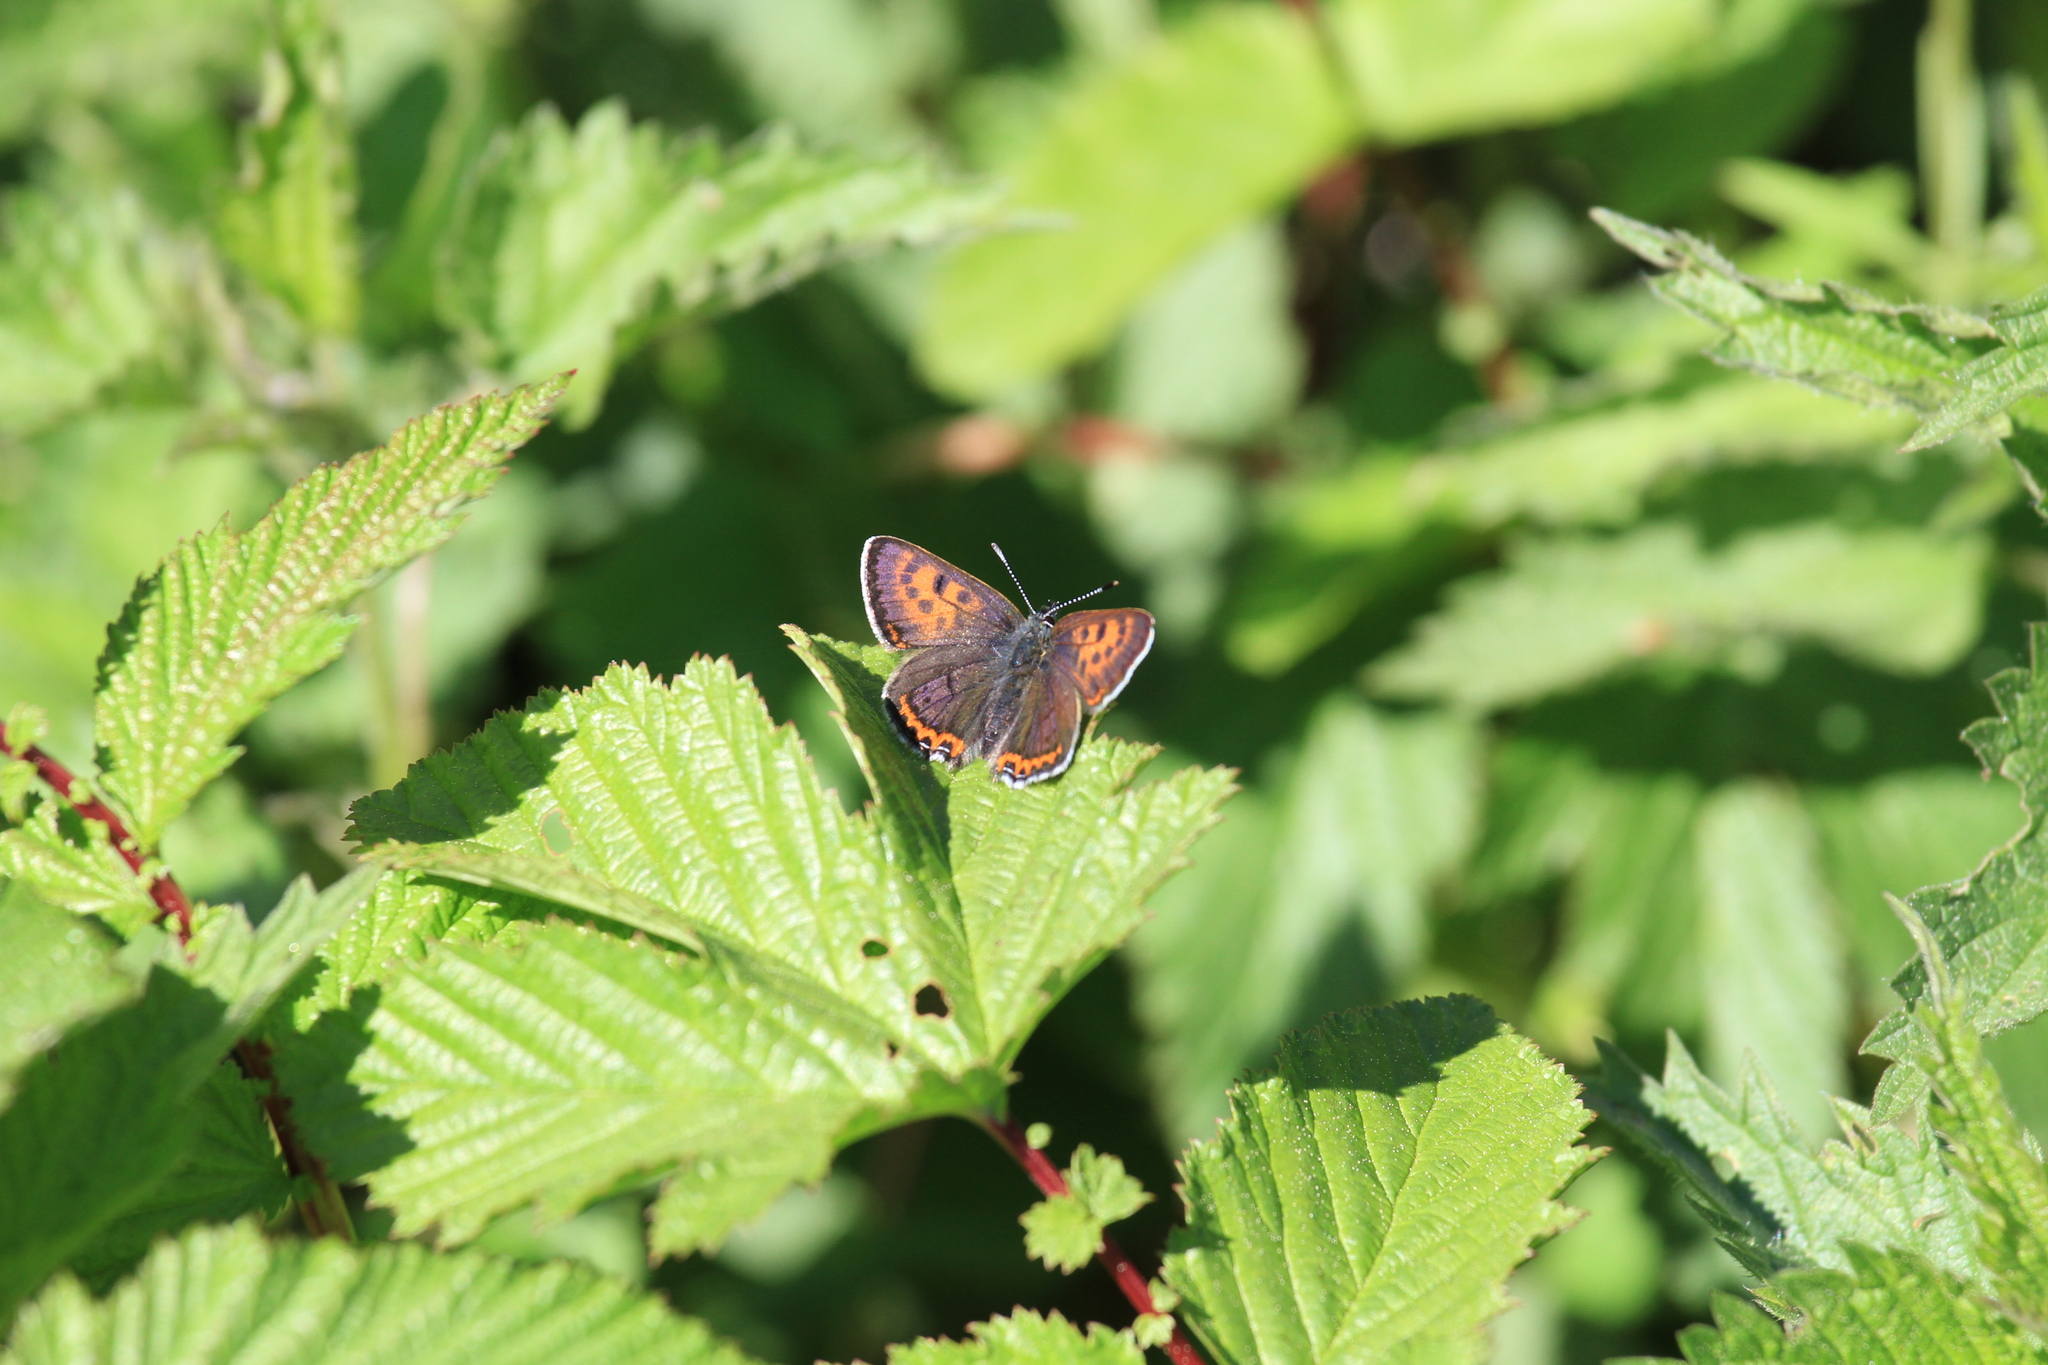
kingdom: Animalia
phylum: Arthropoda
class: Insecta
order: Lepidoptera
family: Lycaenidae
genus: Helleia
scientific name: Helleia helle
